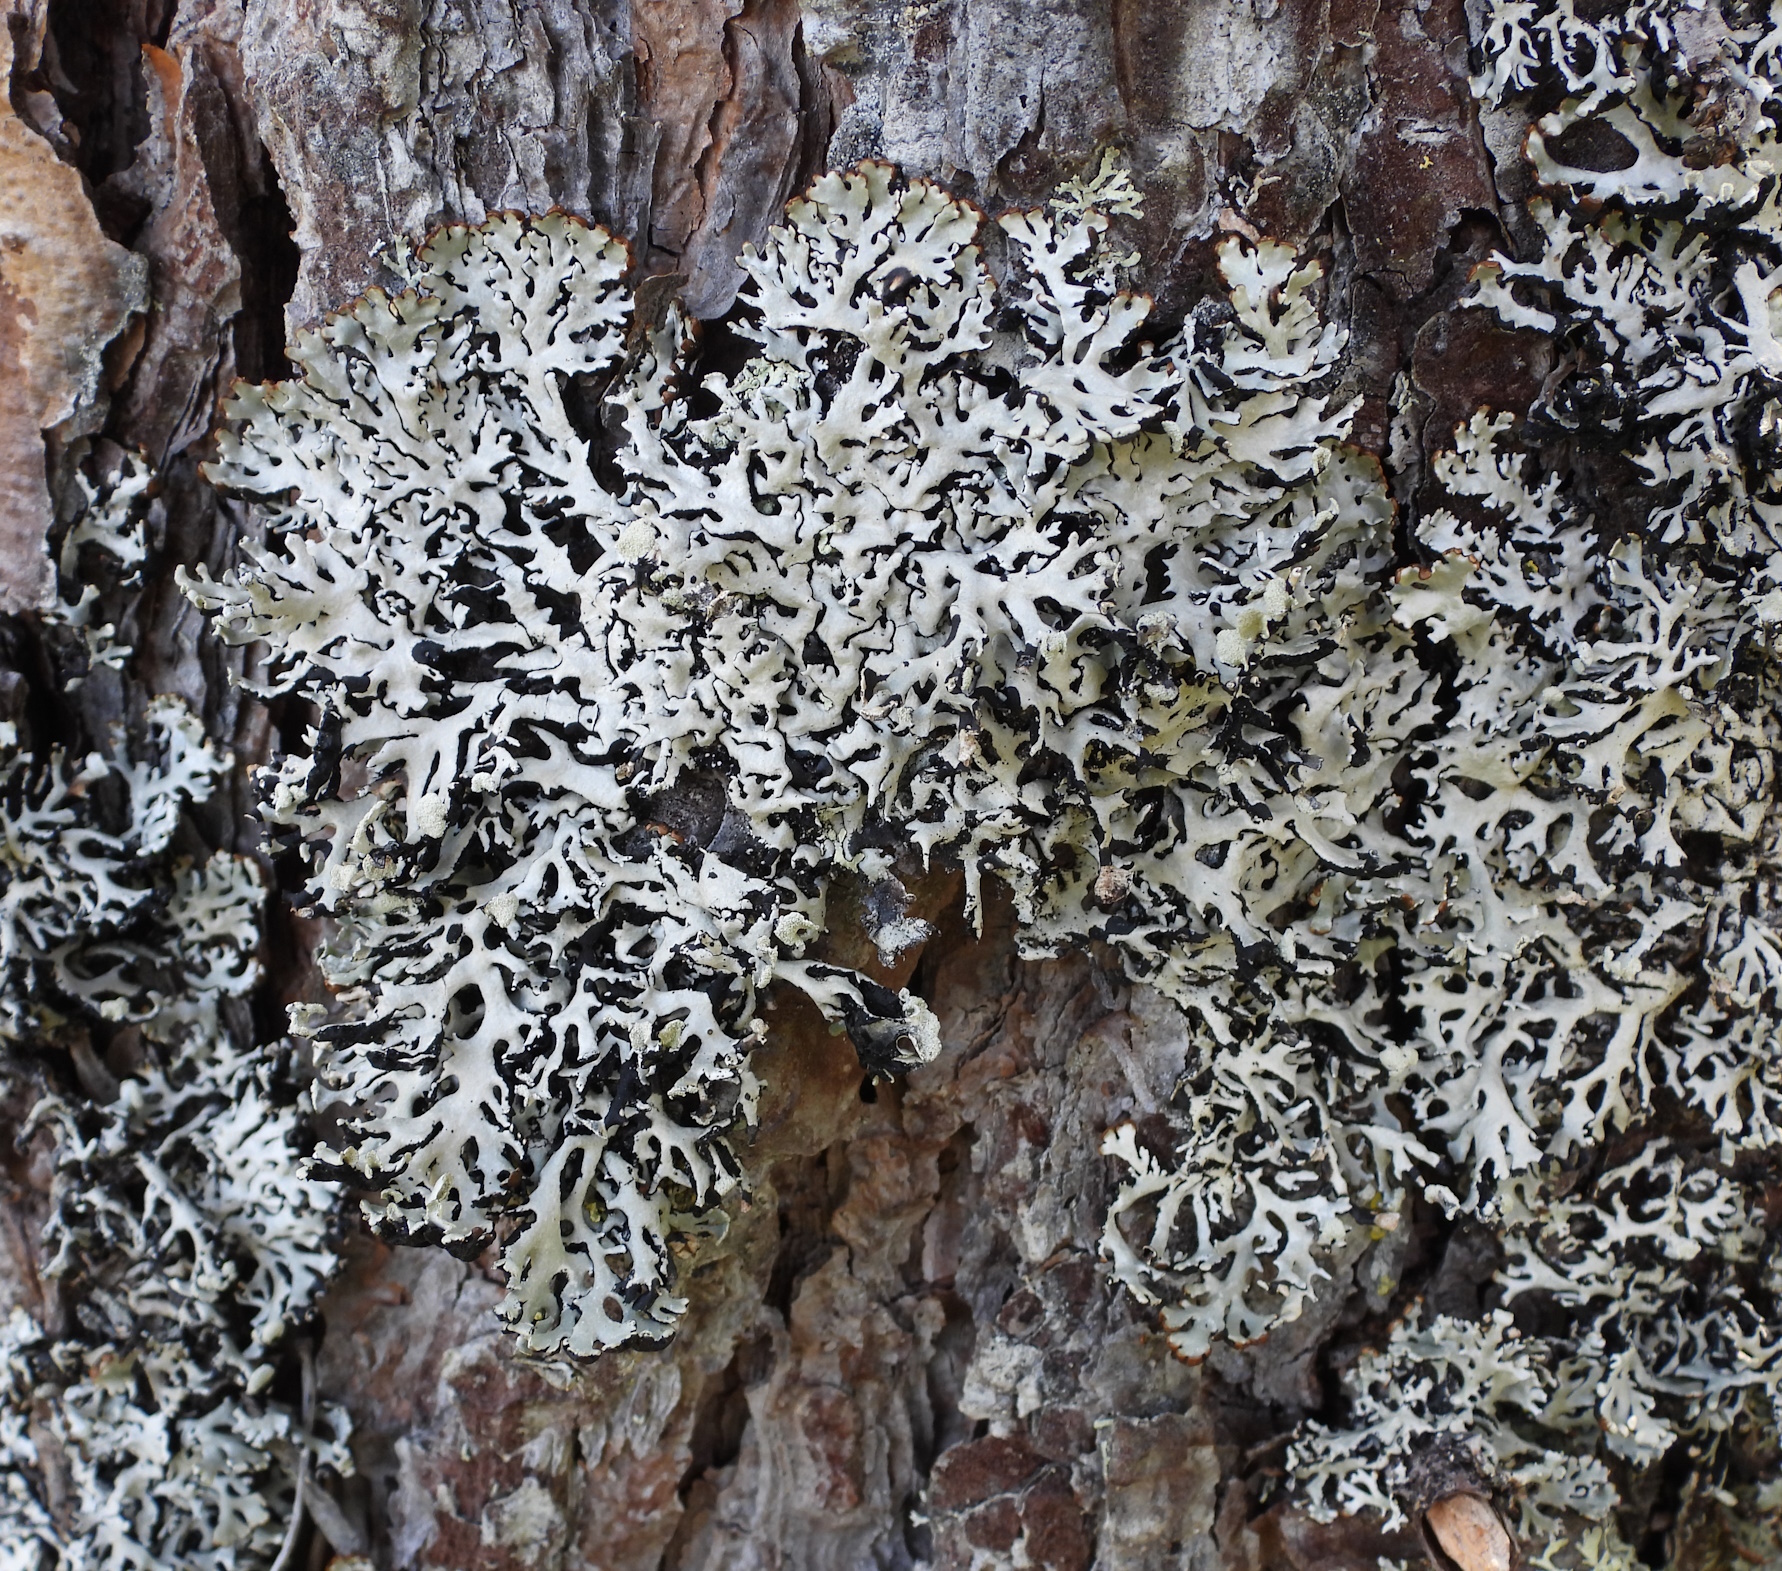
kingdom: Fungi
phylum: Ascomycota
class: Lecanoromycetes
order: Lecanorales
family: Parmeliaceae
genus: Hypogymnia
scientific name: Hypogymnia physodes
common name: Dark crottle
